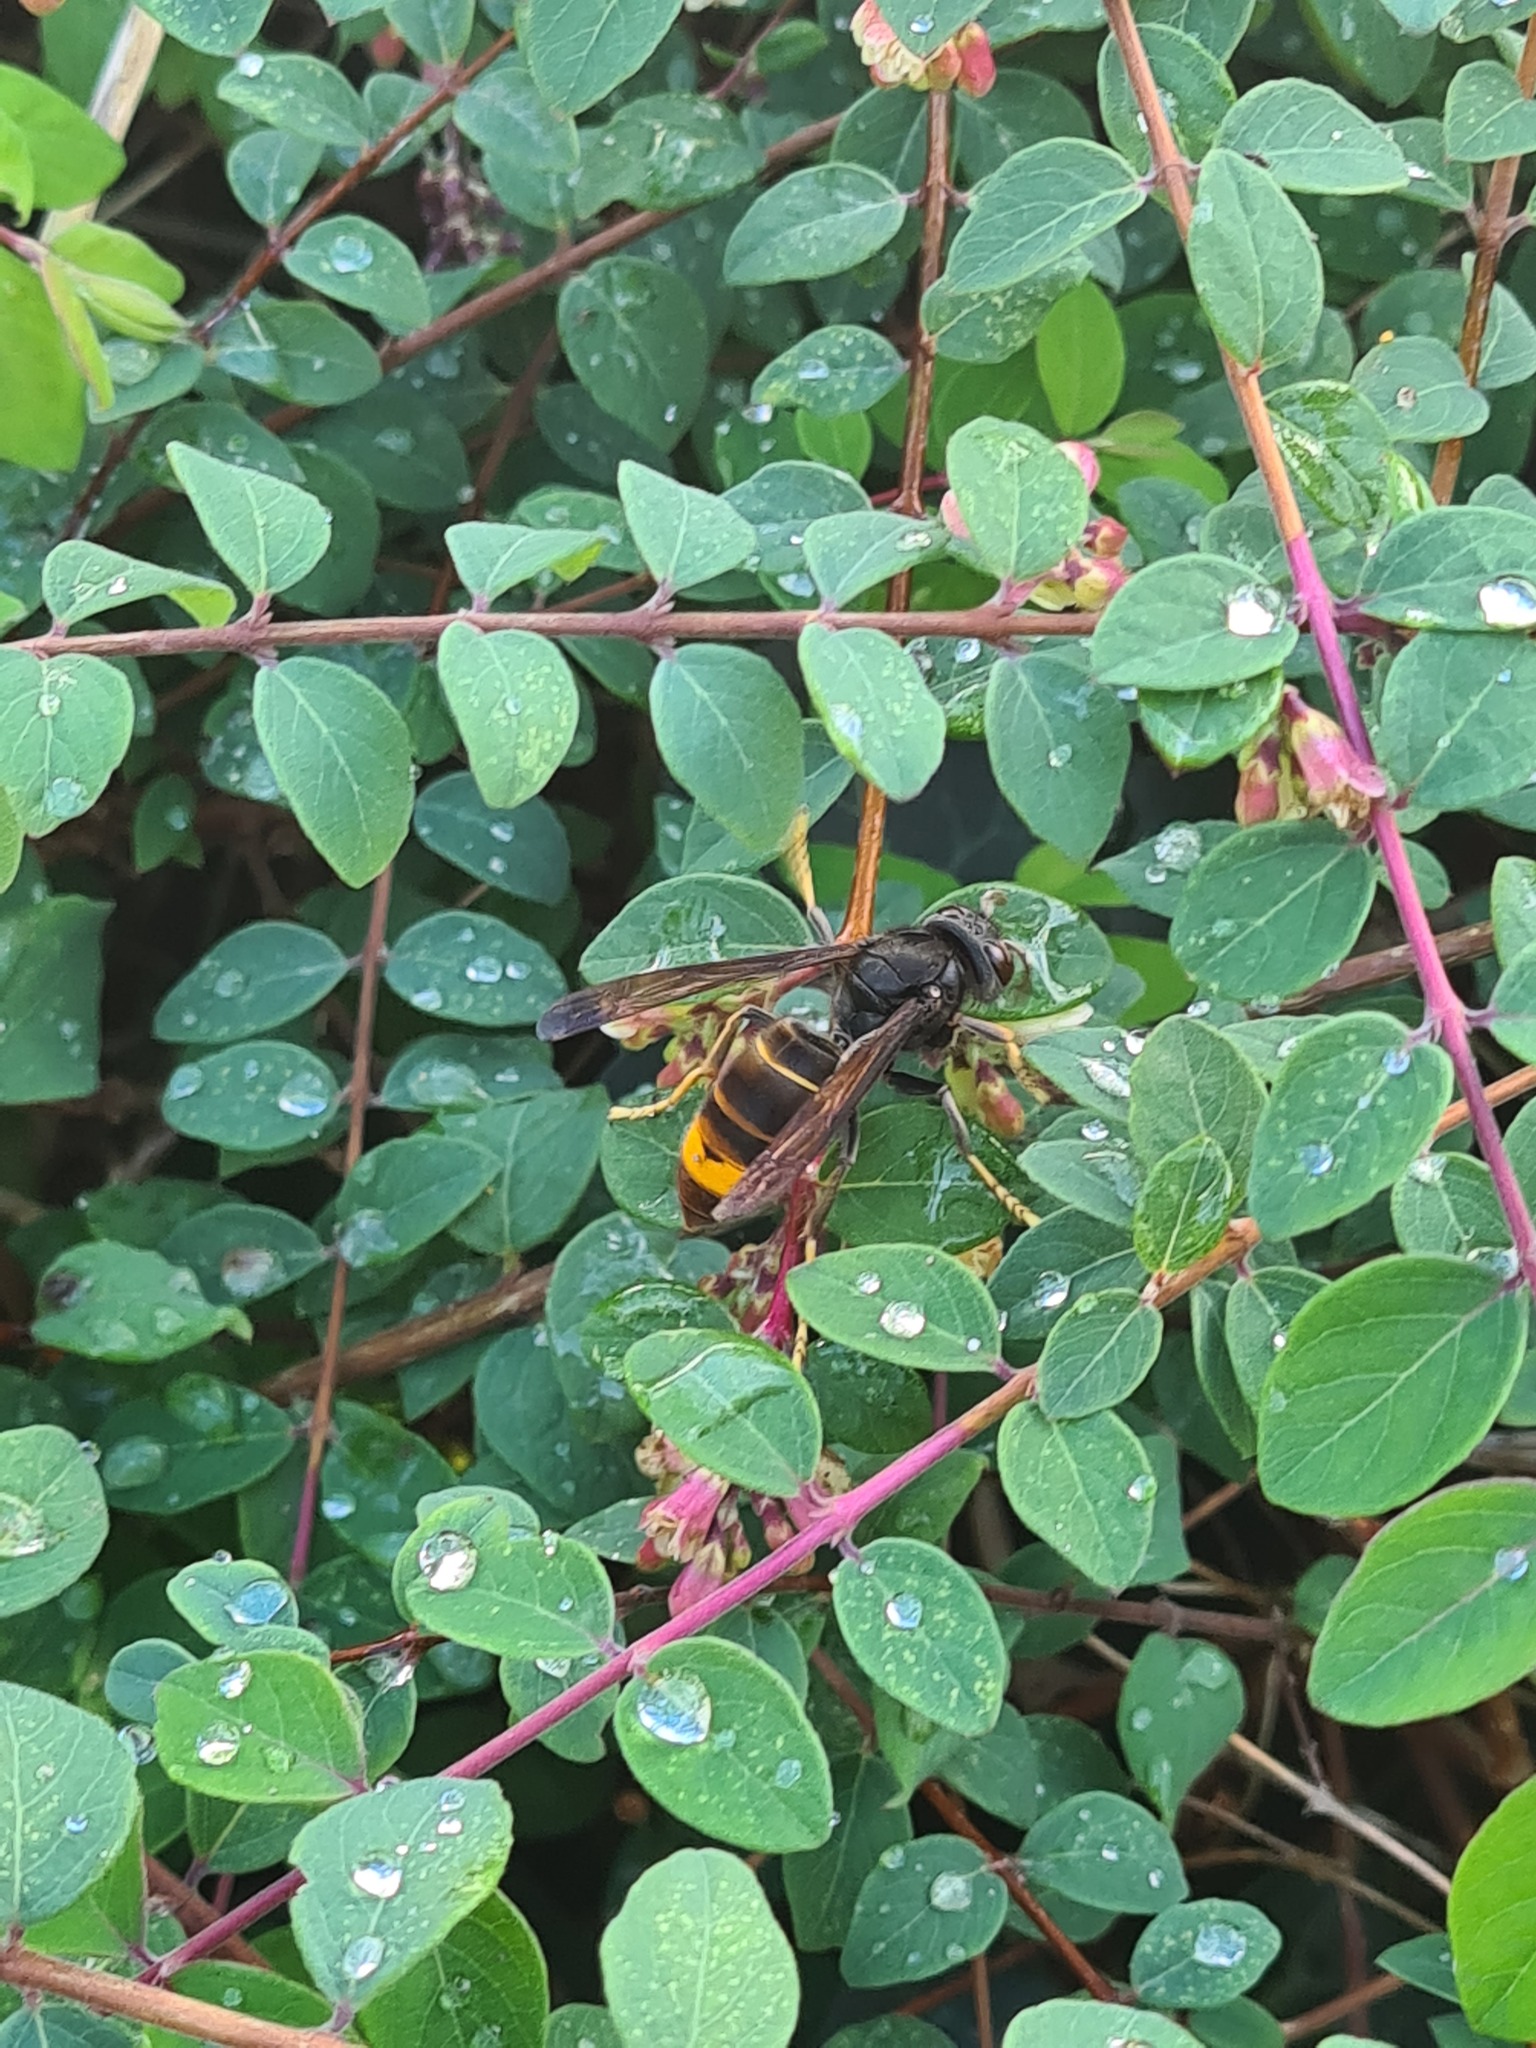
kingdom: Animalia
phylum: Arthropoda
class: Insecta
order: Hymenoptera
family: Vespidae
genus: Vespa
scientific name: Vespa velutina
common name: Asian hornet
